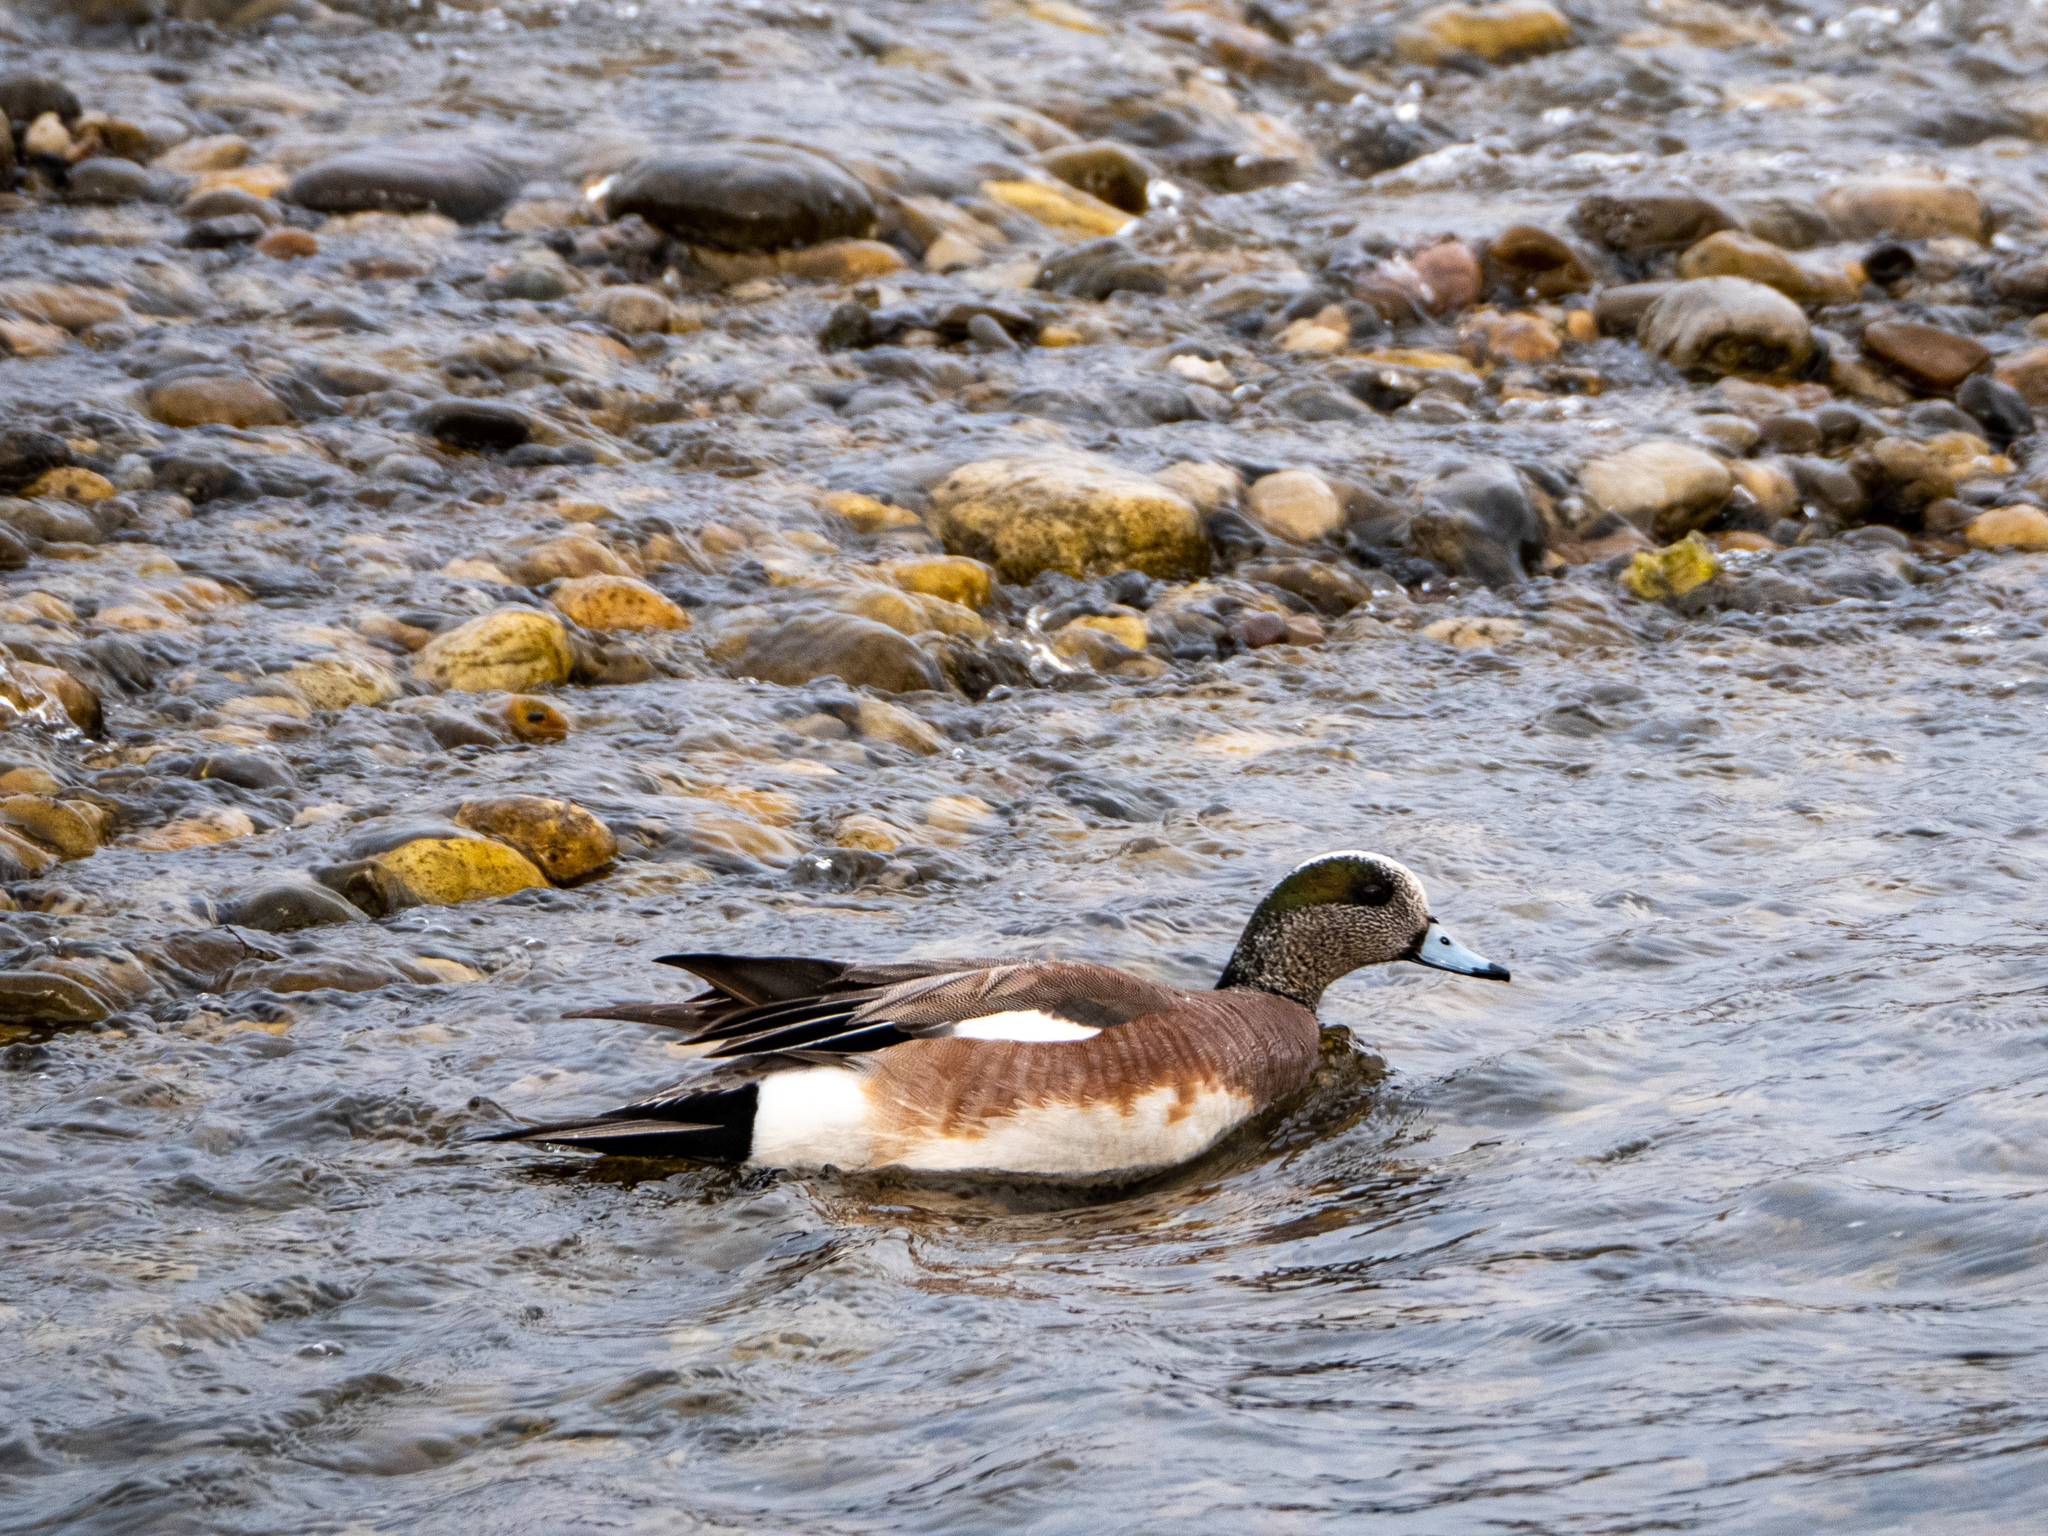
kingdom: Animalia
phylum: Chordata
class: Aves
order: Anseriformes
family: Anatidae
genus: Mareca
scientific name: Mareca americana
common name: American wigeon
